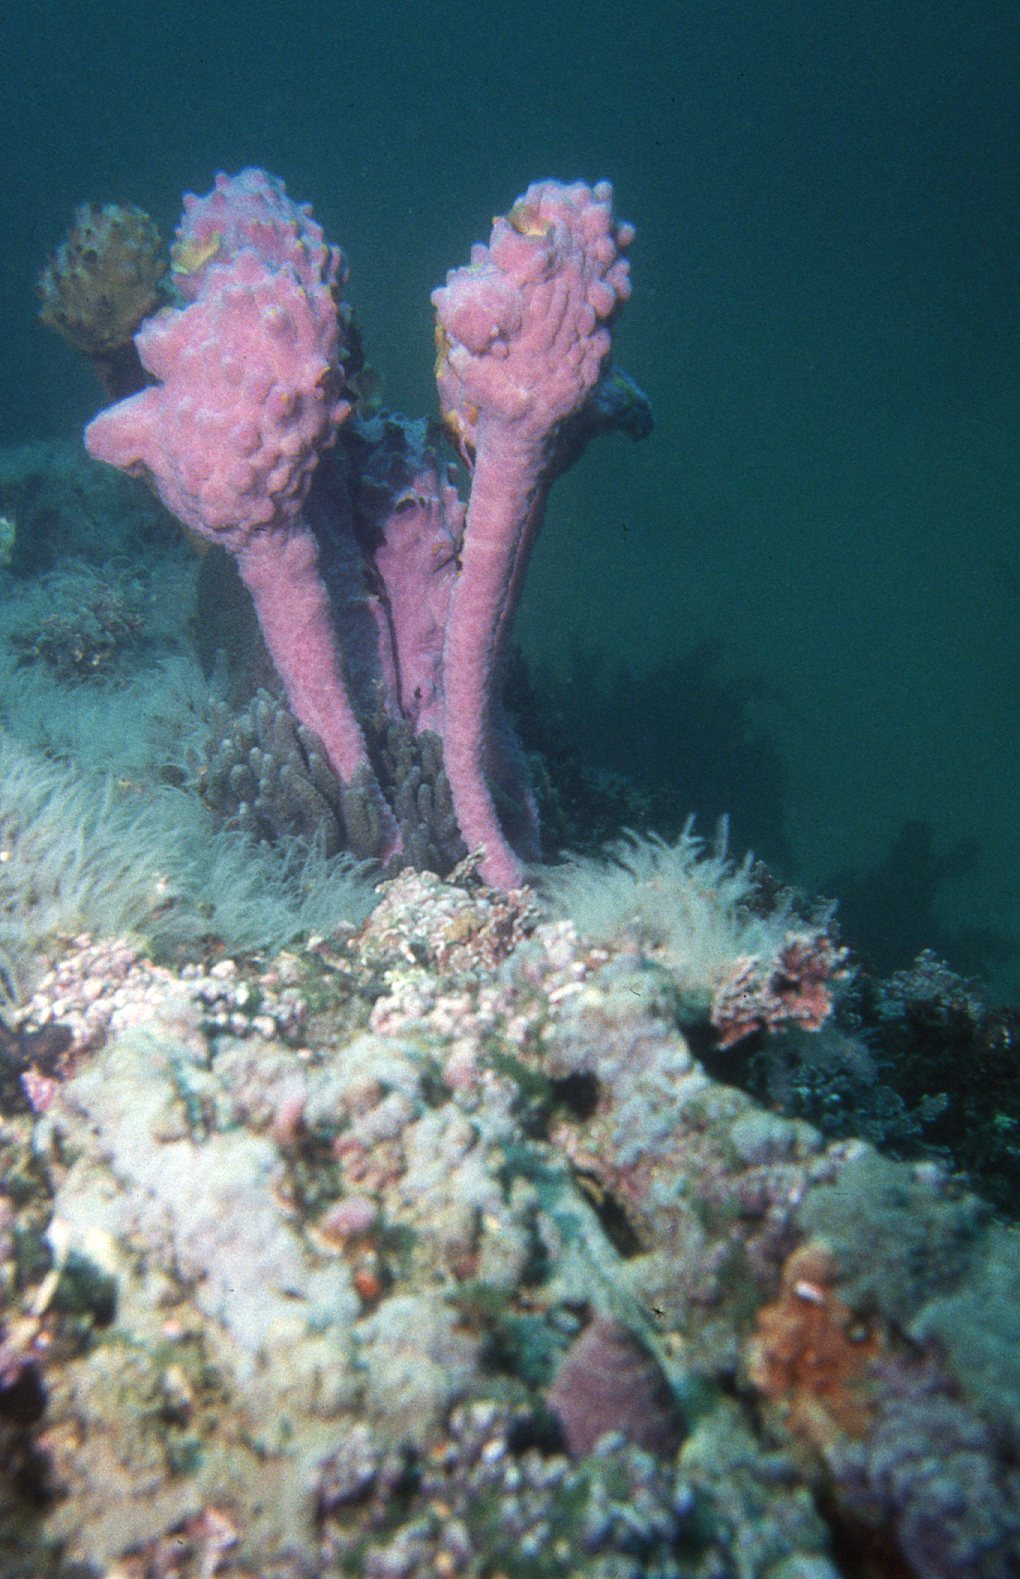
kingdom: Animalia
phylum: Chordata
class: Ascidiacea
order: Stolidobranchia
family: Pyuridae
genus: Pyura
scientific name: Pyura spinifera
